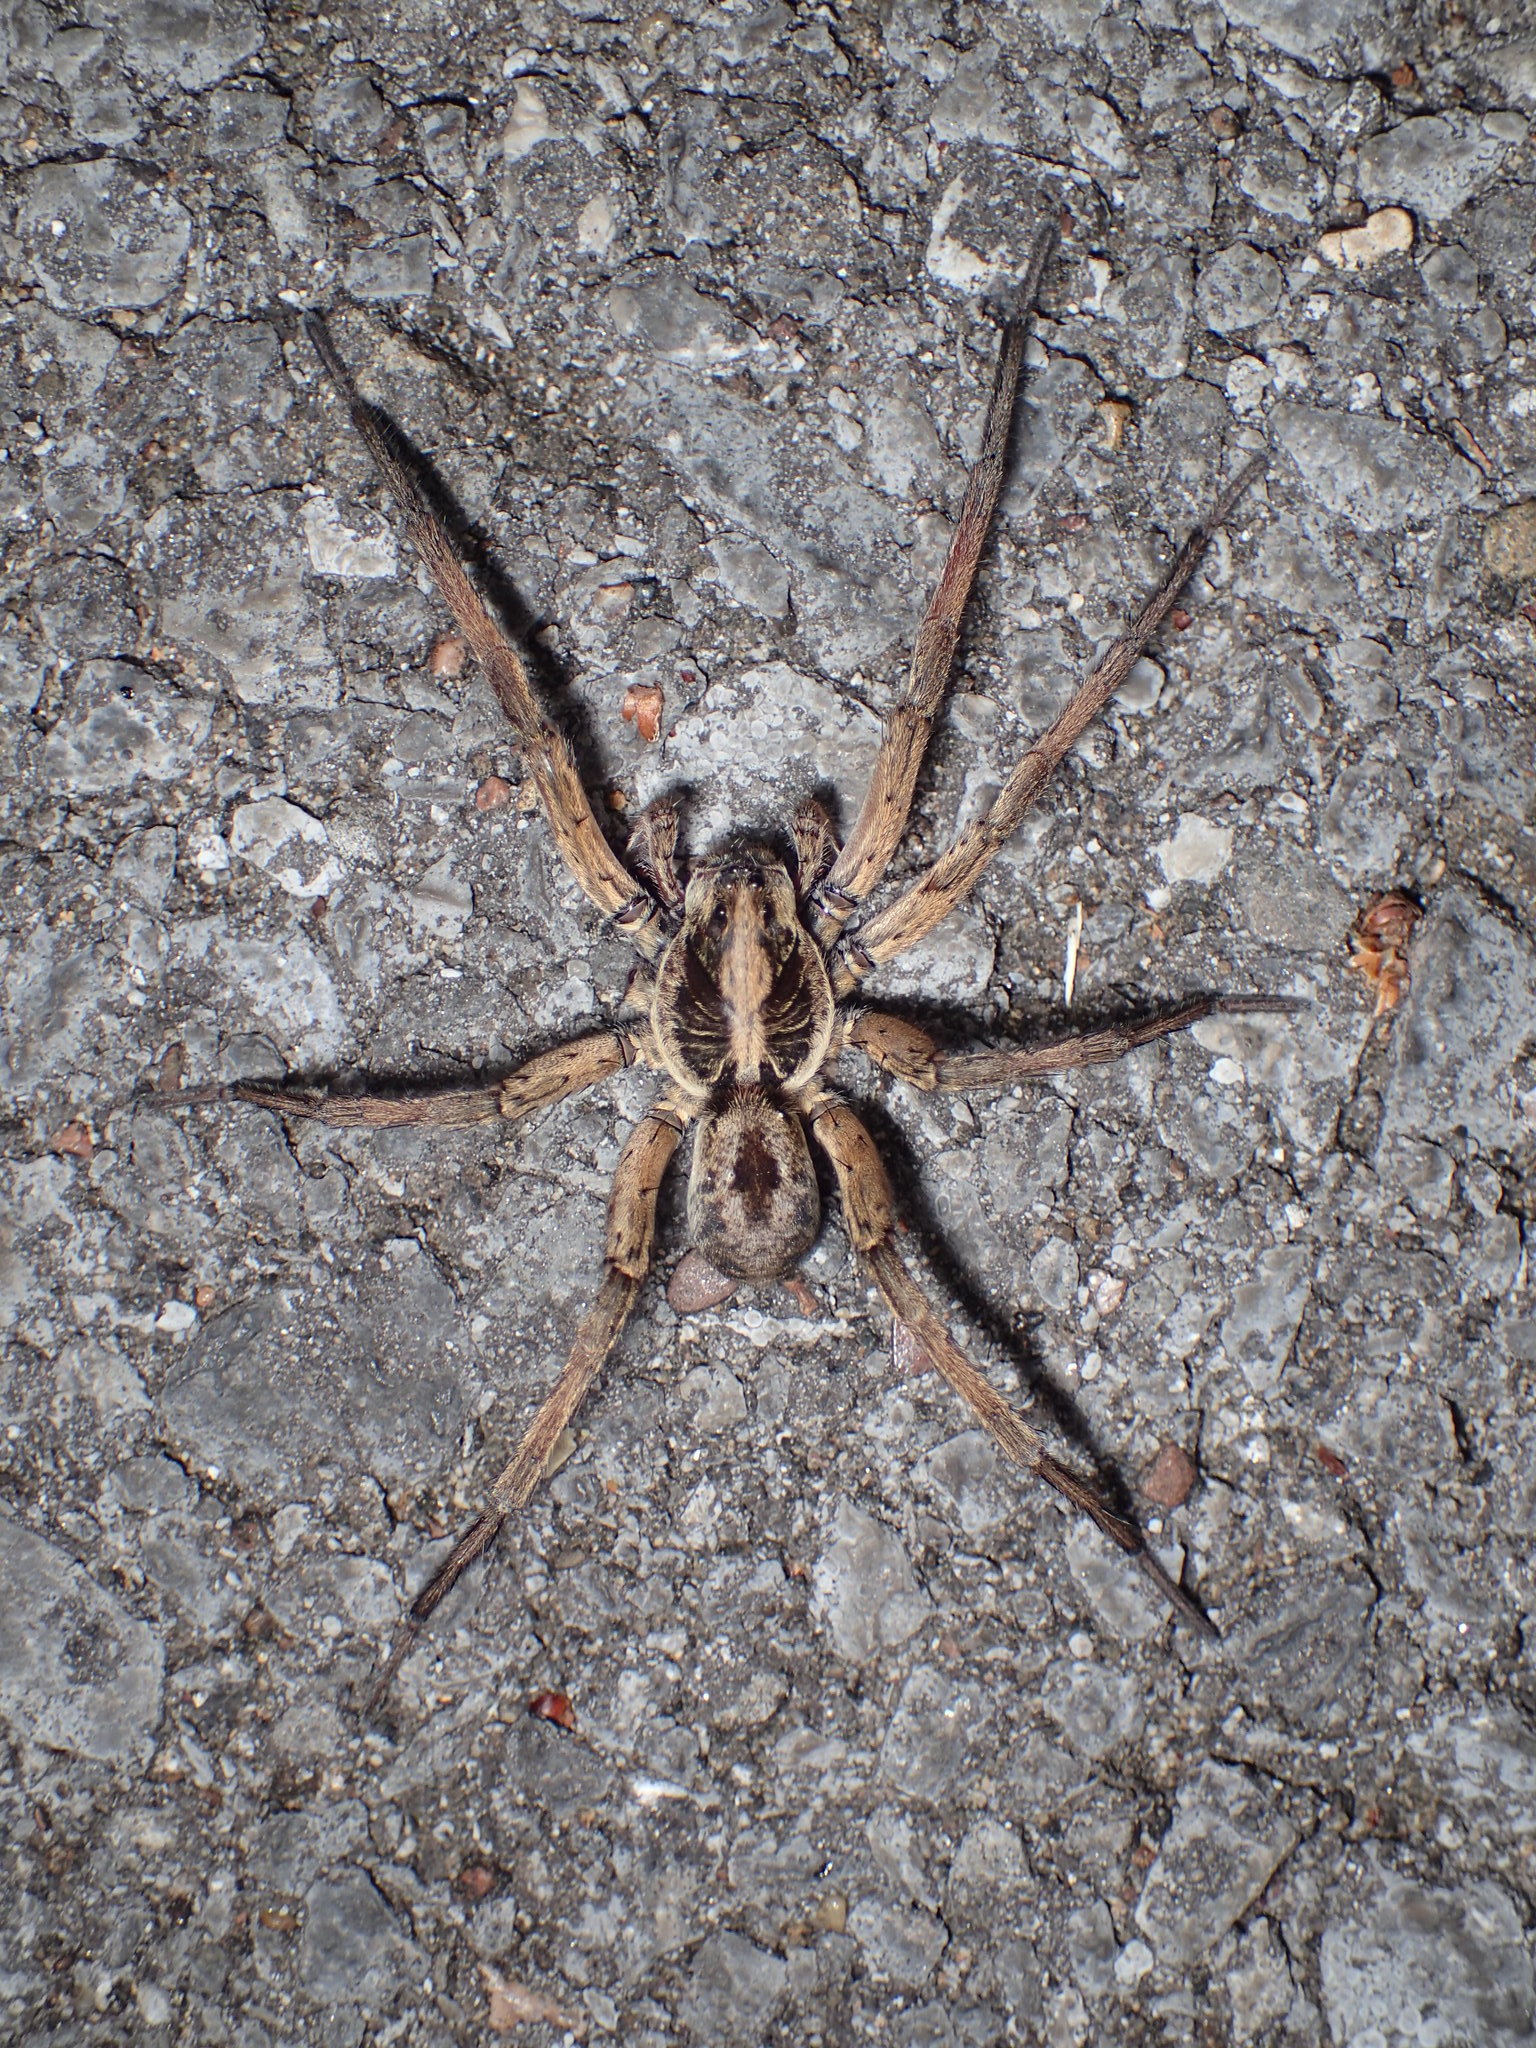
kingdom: Animalia
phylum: Arthropoda
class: Arachnida
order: Araneae
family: Lycosidae
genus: Hogna
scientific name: Hogna lenta
